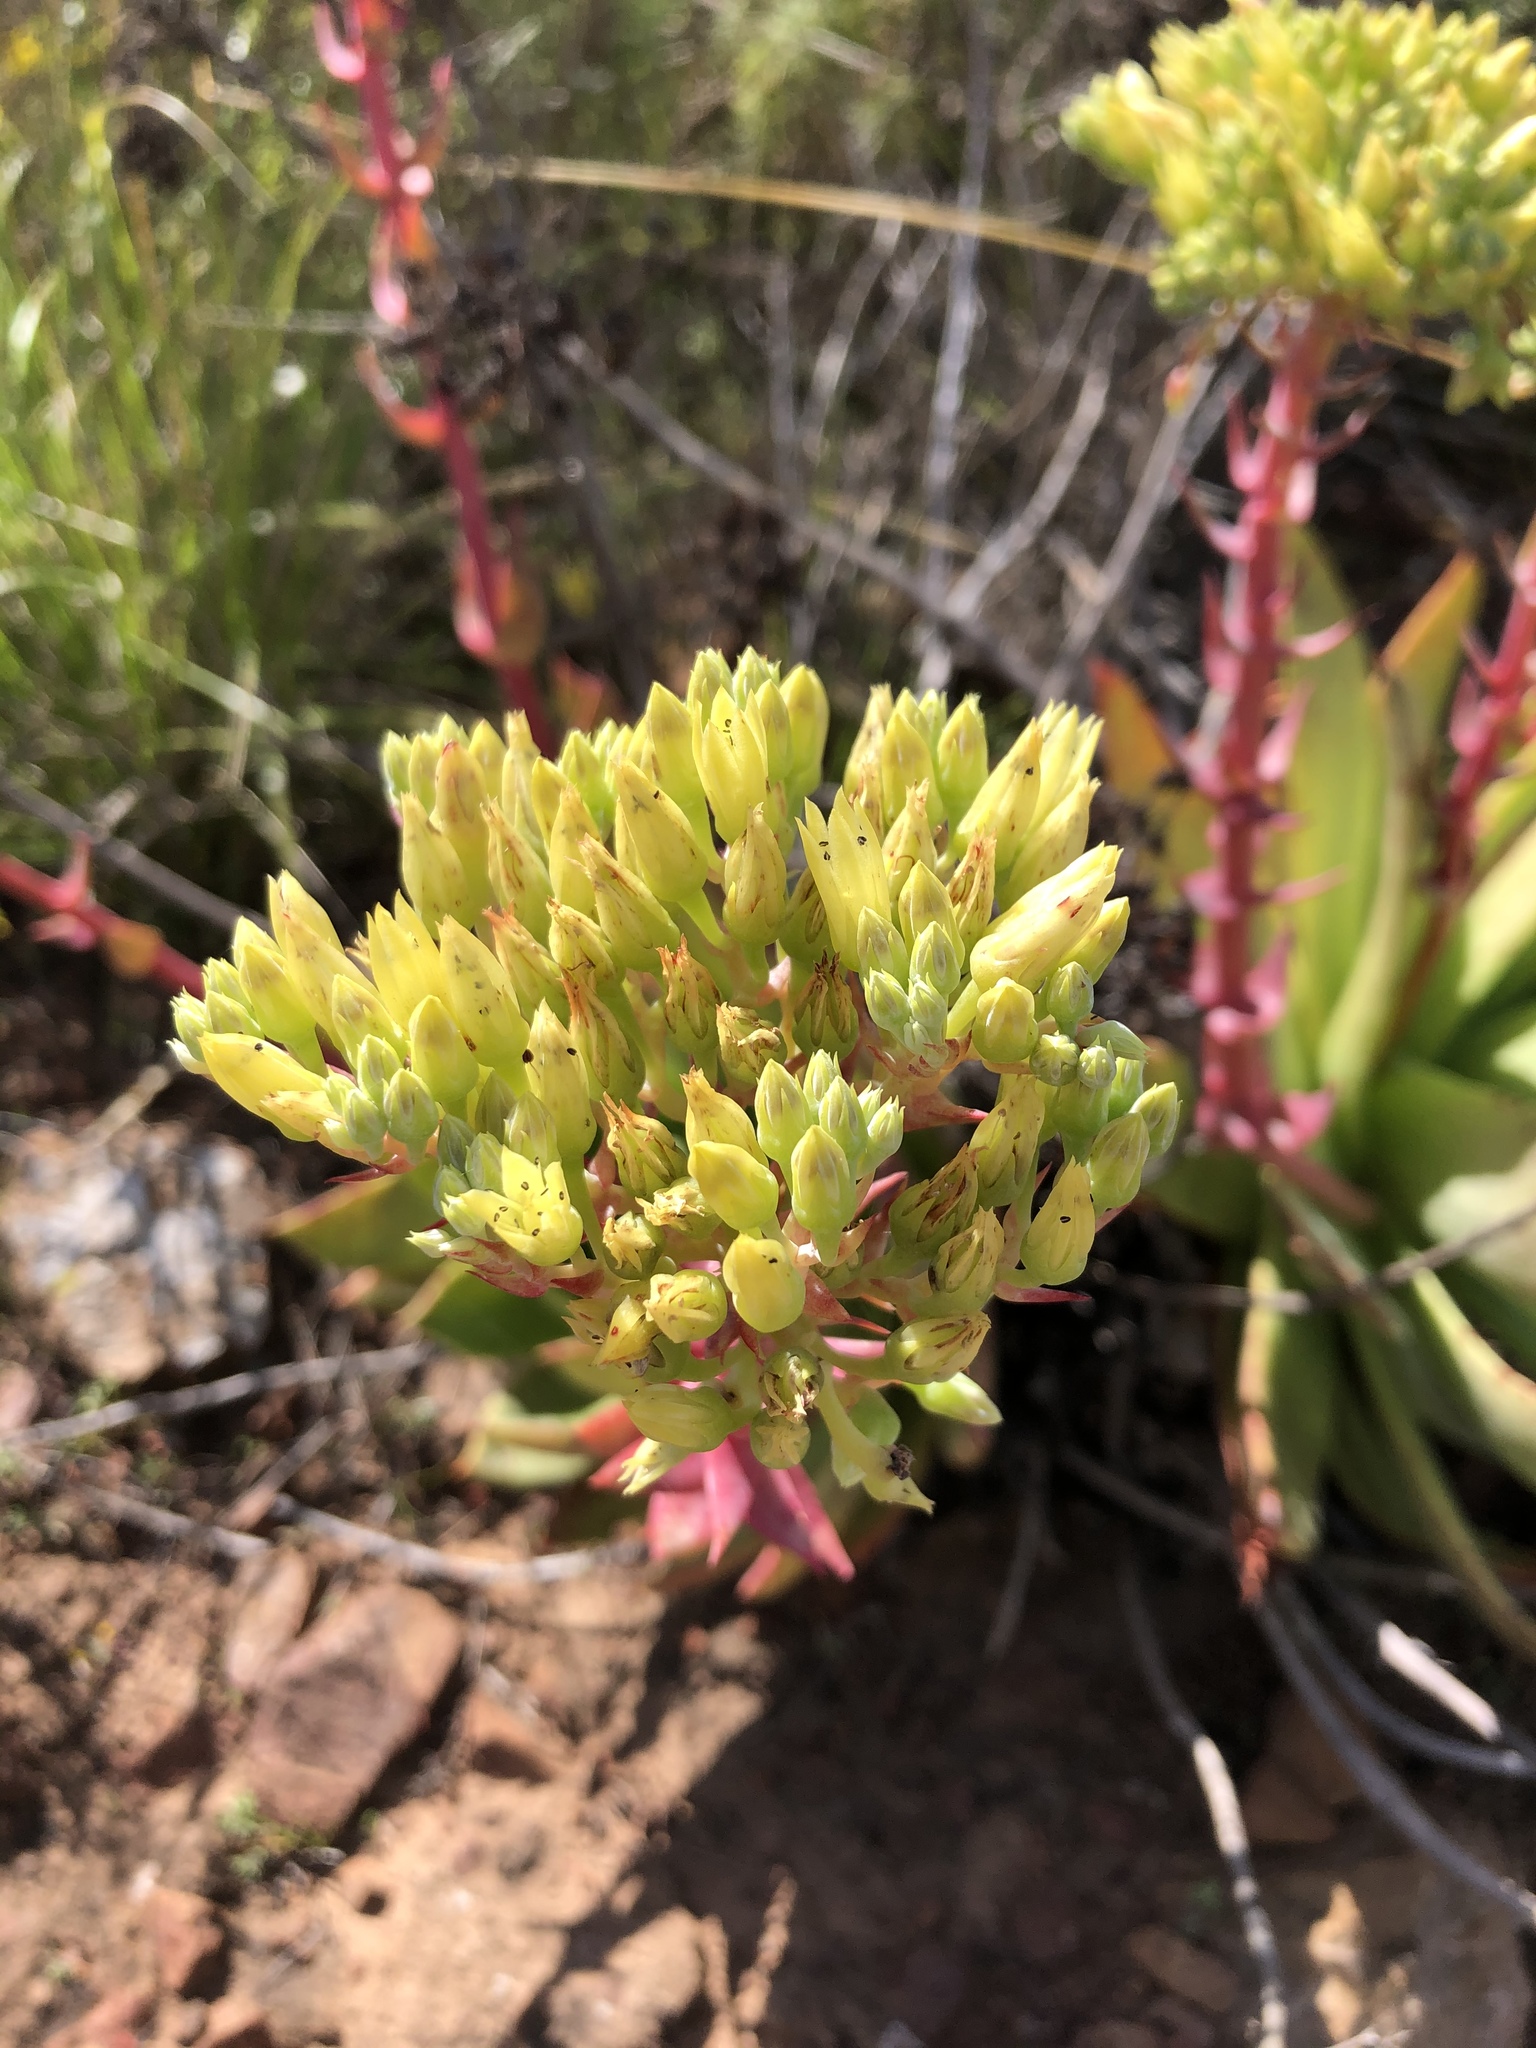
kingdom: Plantae
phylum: Tracheophyta
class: Magnoliopsida
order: Saxifragales
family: Crassulaceae
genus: Dudleya
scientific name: Dudleya brittonii
